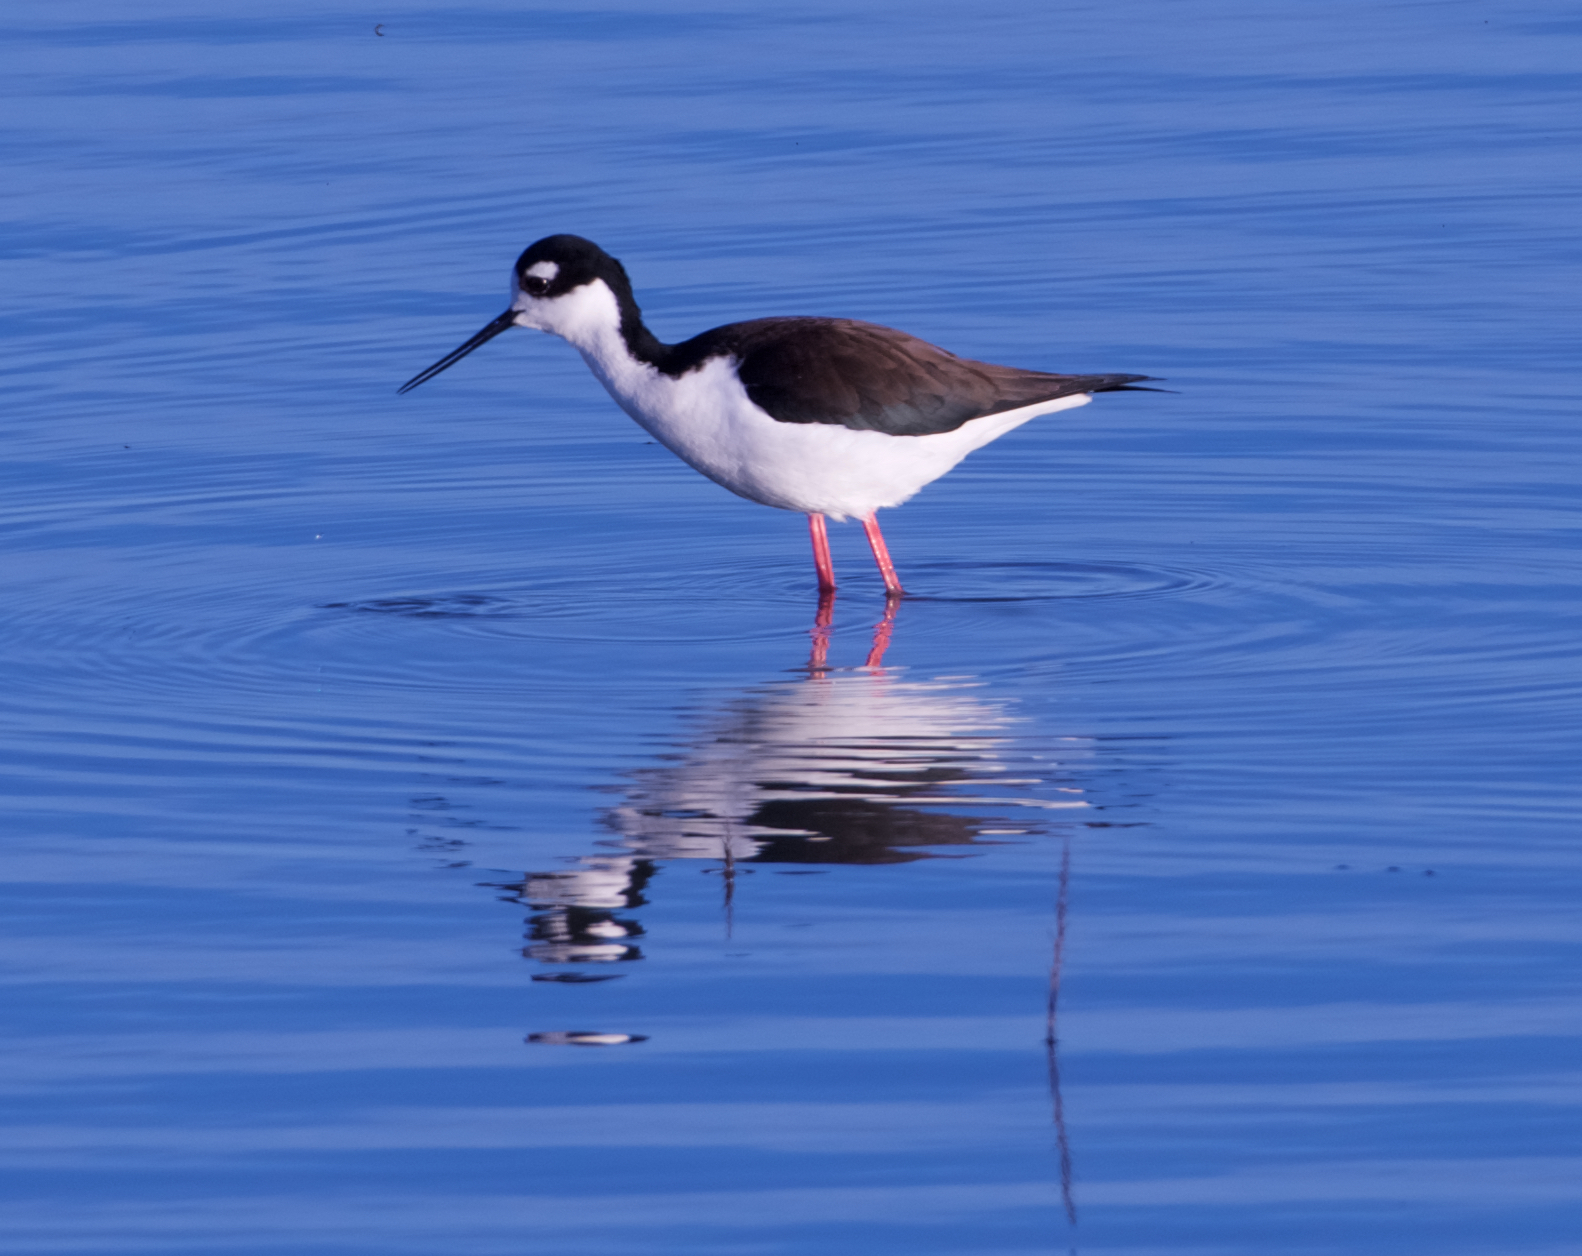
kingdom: Animalia
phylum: Chordata
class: Aves
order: Charadriiformes
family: Recurvirostridae
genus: Himantopus
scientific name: Himantopus mexicanus
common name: Black-necked stilt
